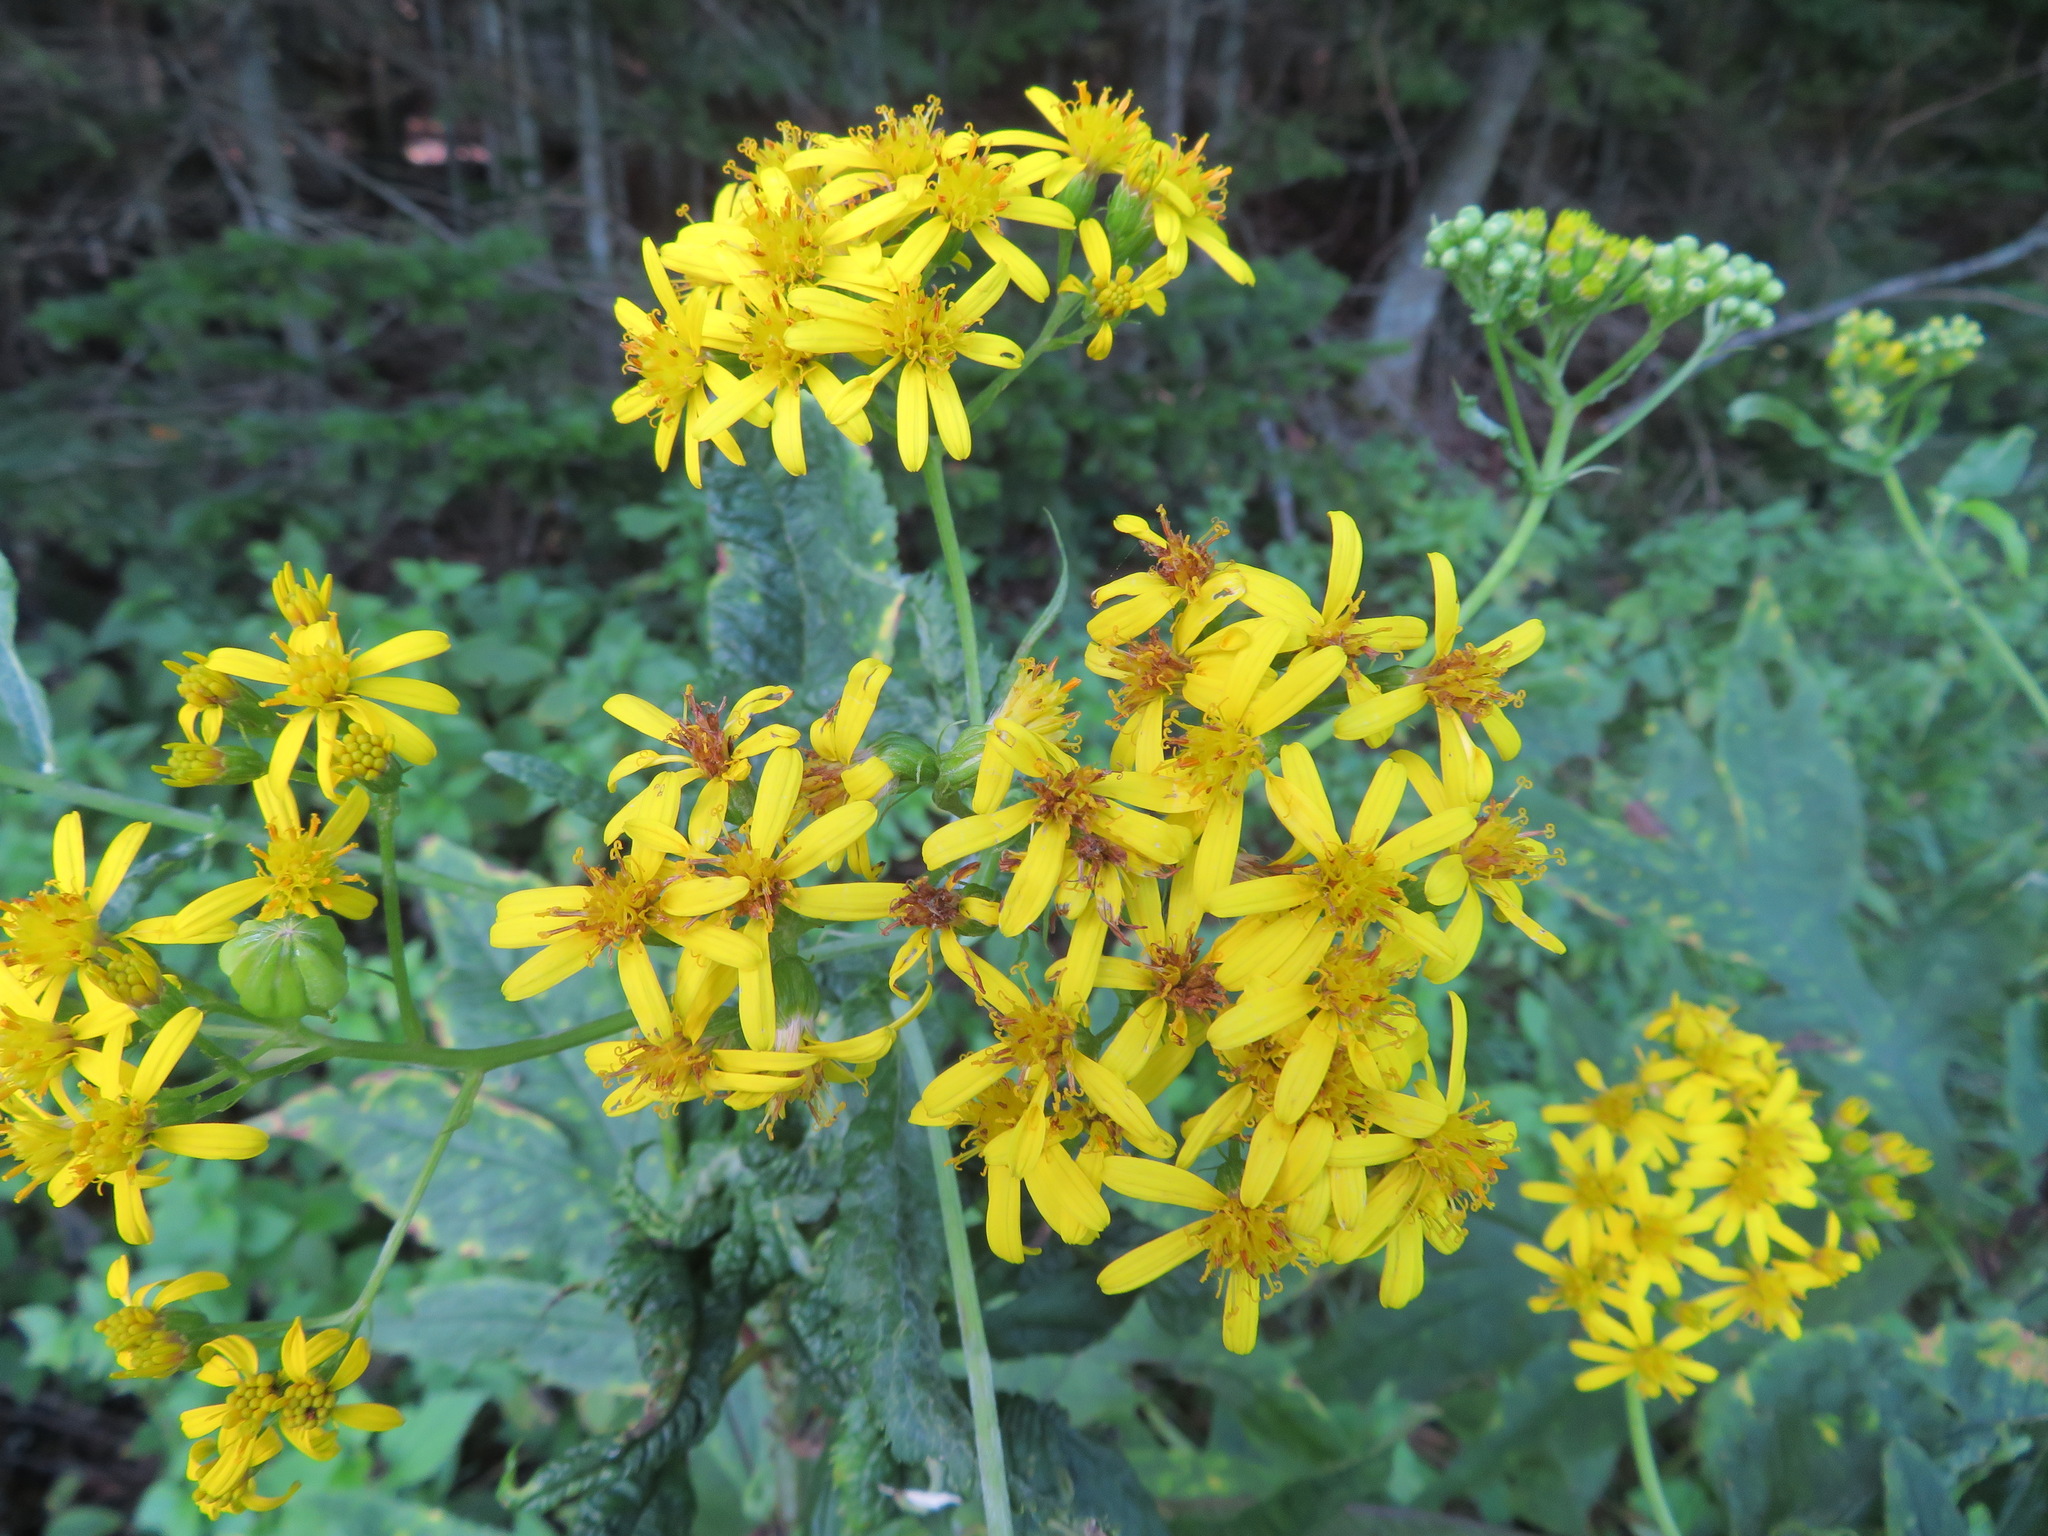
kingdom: Plantae
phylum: Tracheophyta
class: Magnoliopsida
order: Asterales
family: Asteraceae
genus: Jacobaea
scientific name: Jacobaea cannabifolia
